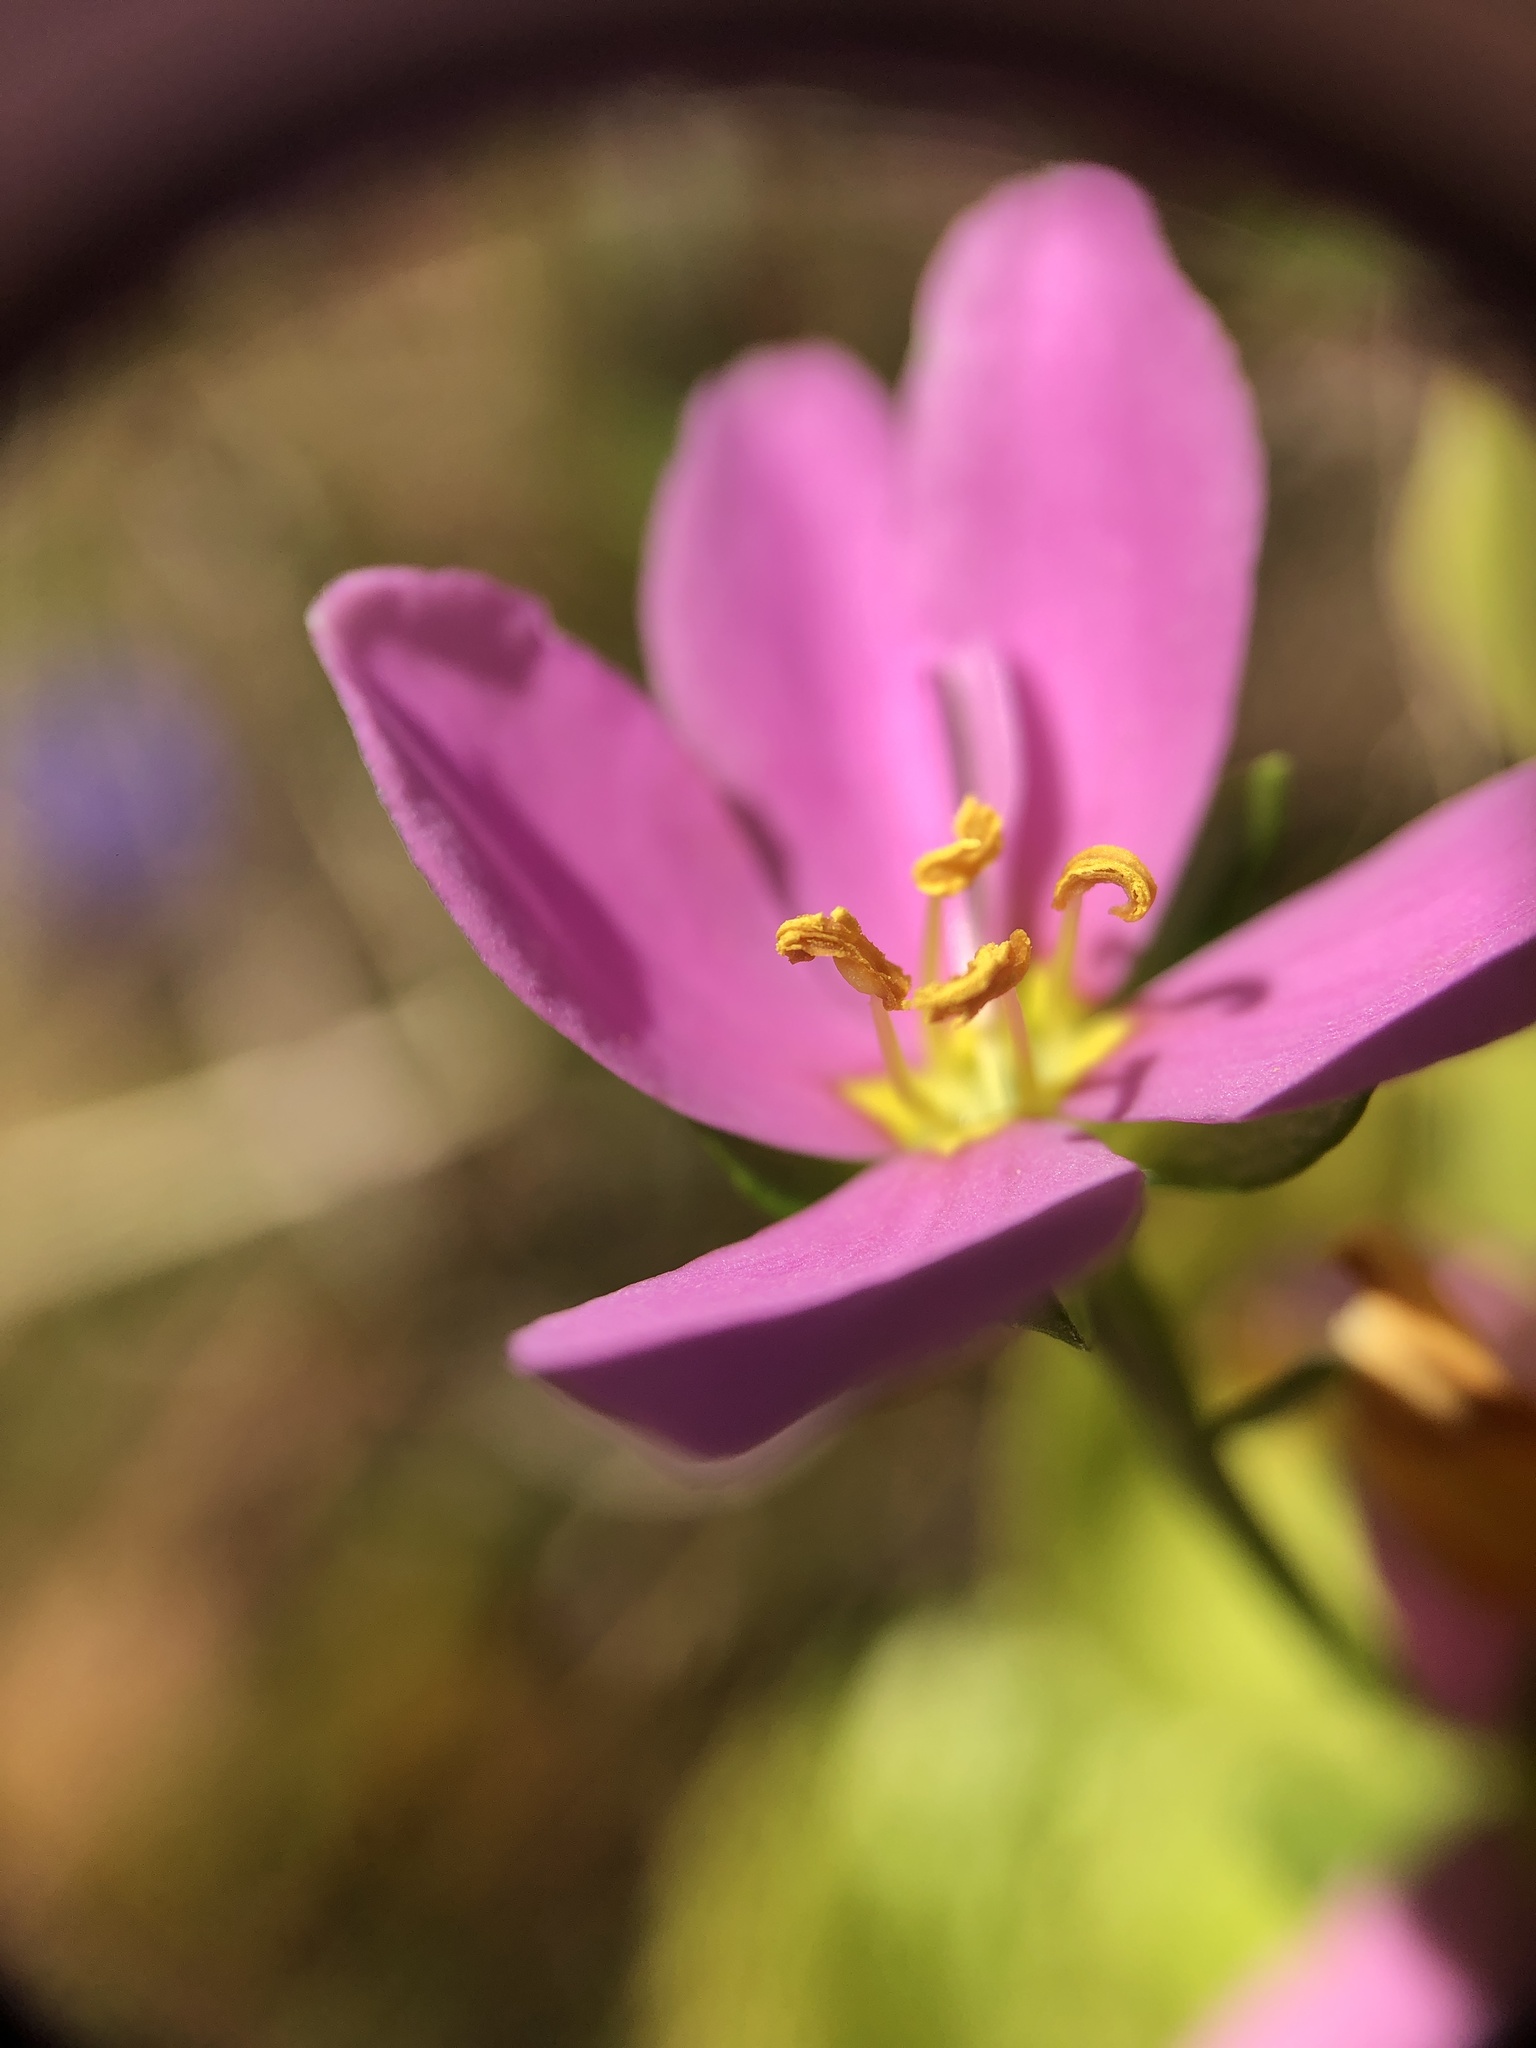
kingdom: Plantae
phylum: Tracheophyta
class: Magnoliopsida
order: Gentianales
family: Gentianaceae
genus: Sabatia
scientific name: Sabatia angularis
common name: Rose-pink
